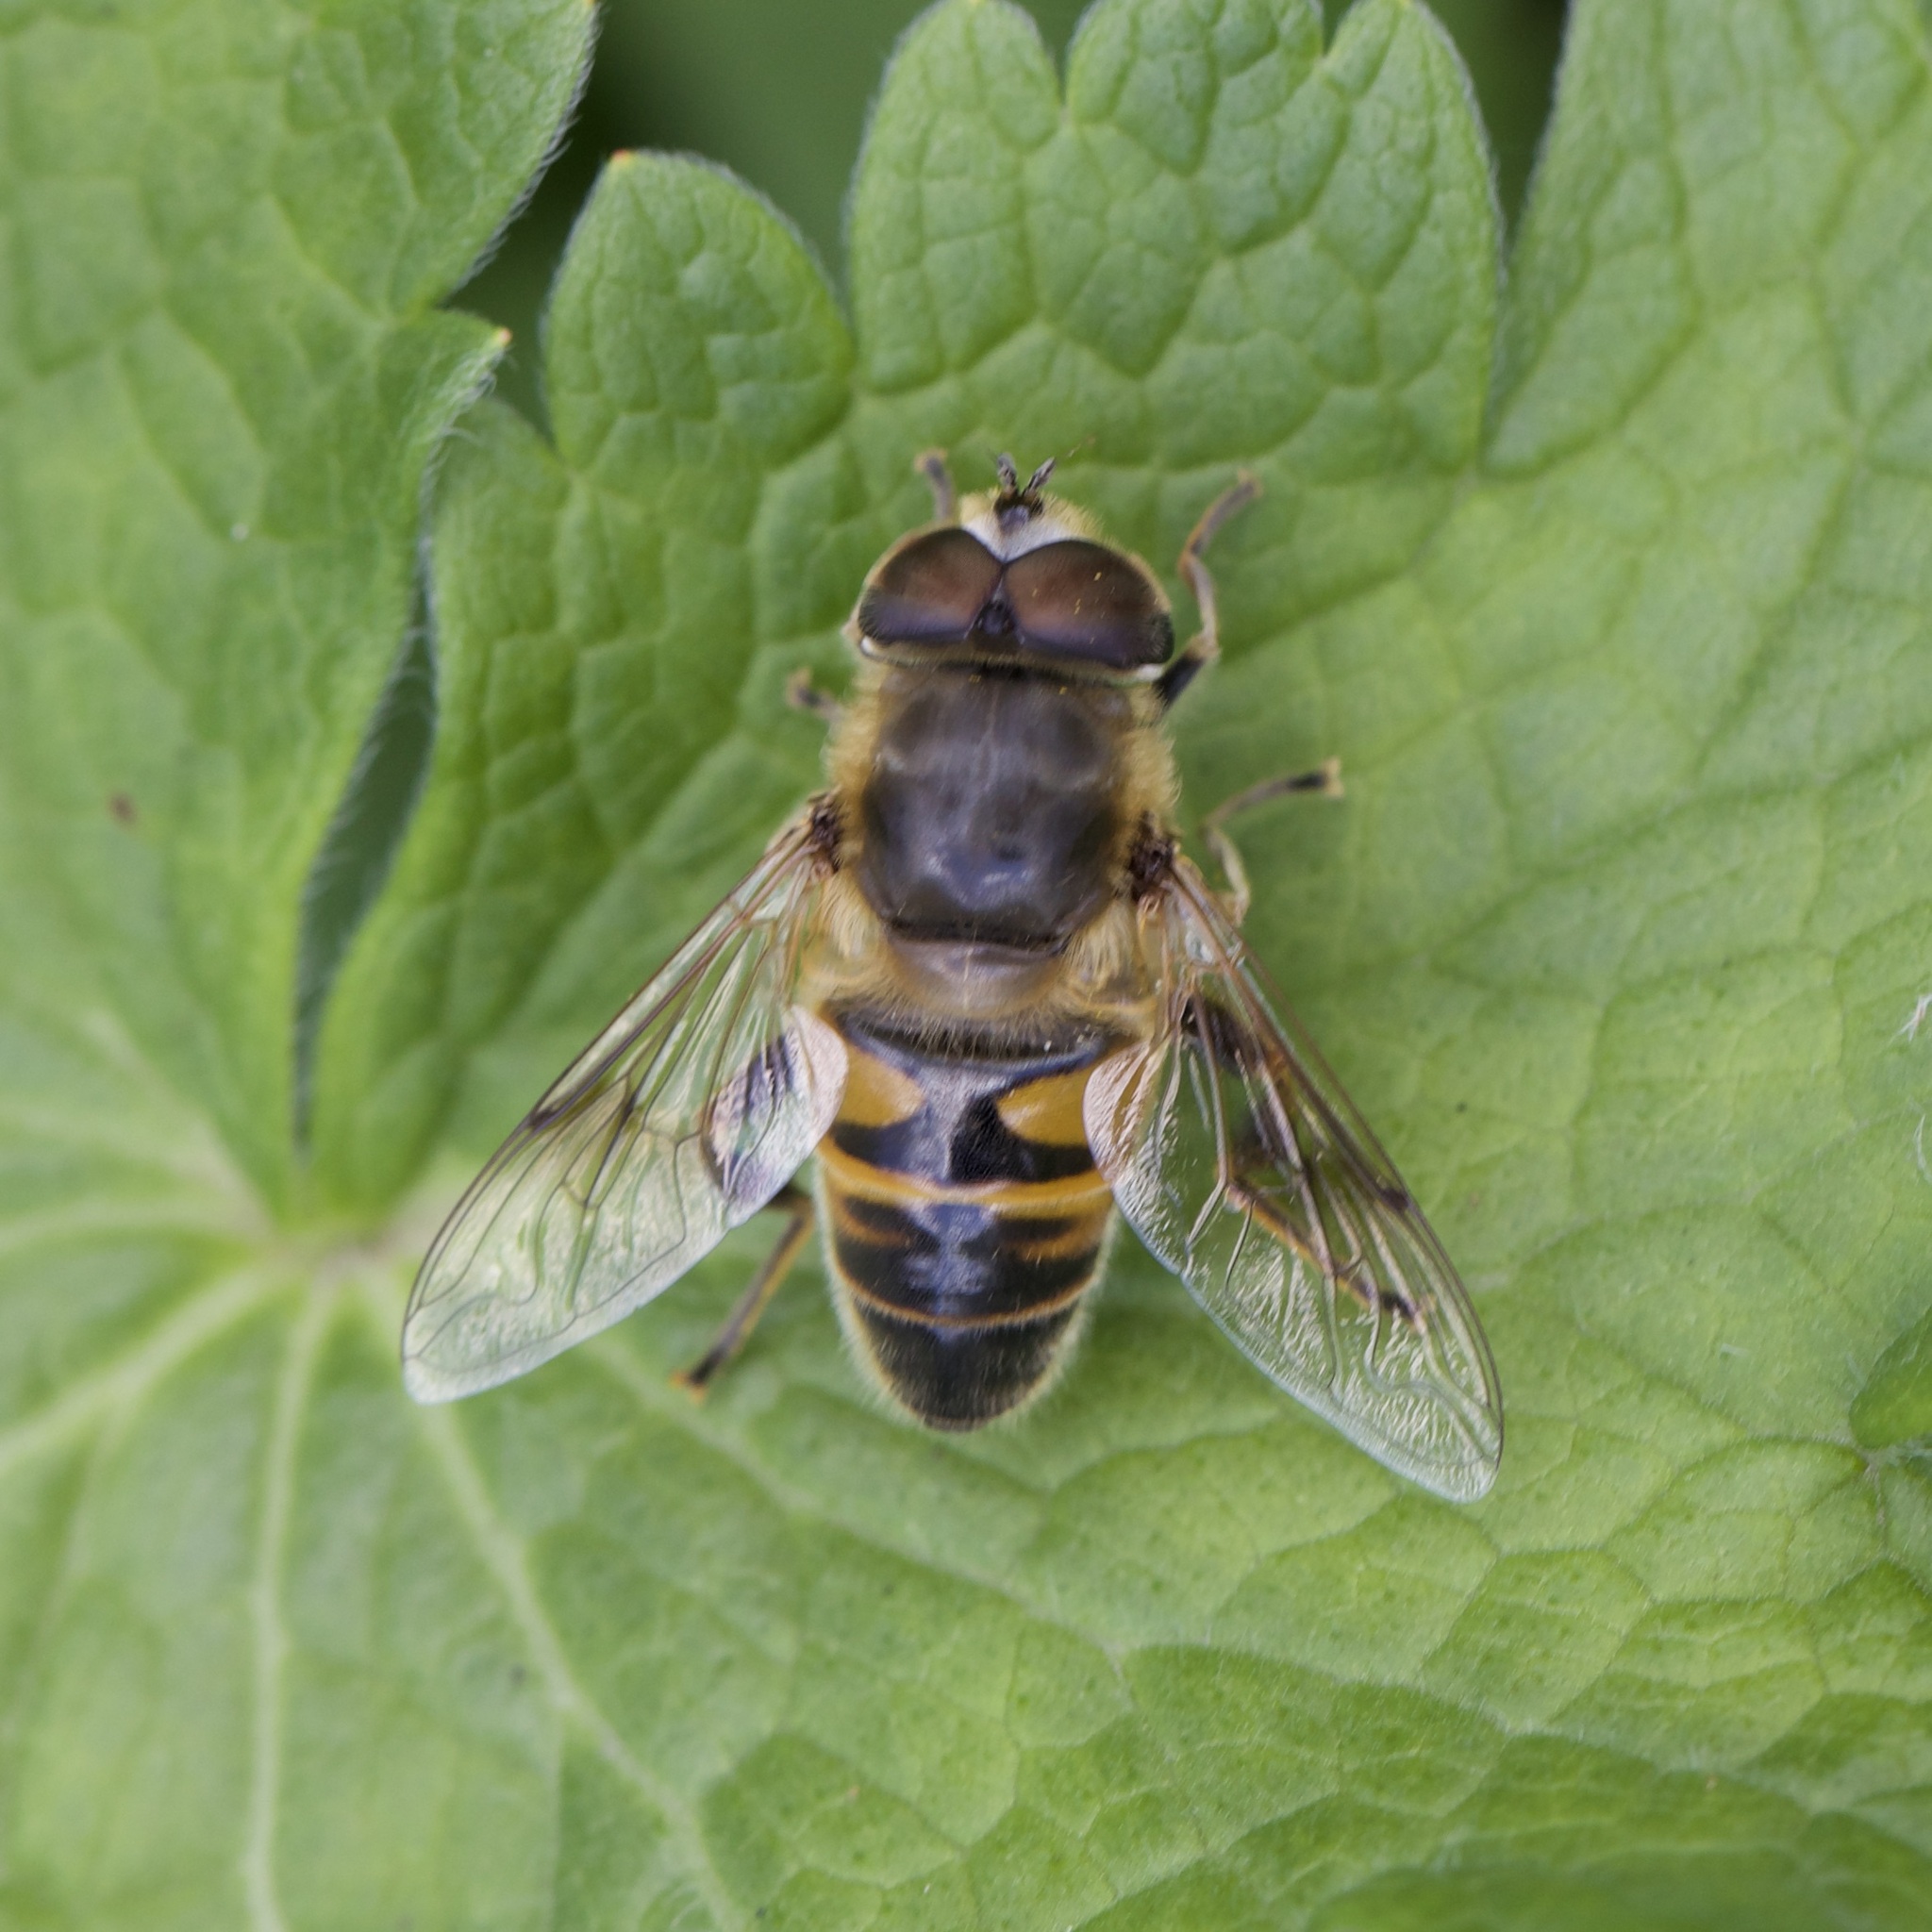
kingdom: Animalia
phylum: Arthropoda
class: Insecta
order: Diptera
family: Syrphidae
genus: Eristalis
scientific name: Eristalis tenax
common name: Drone fly
